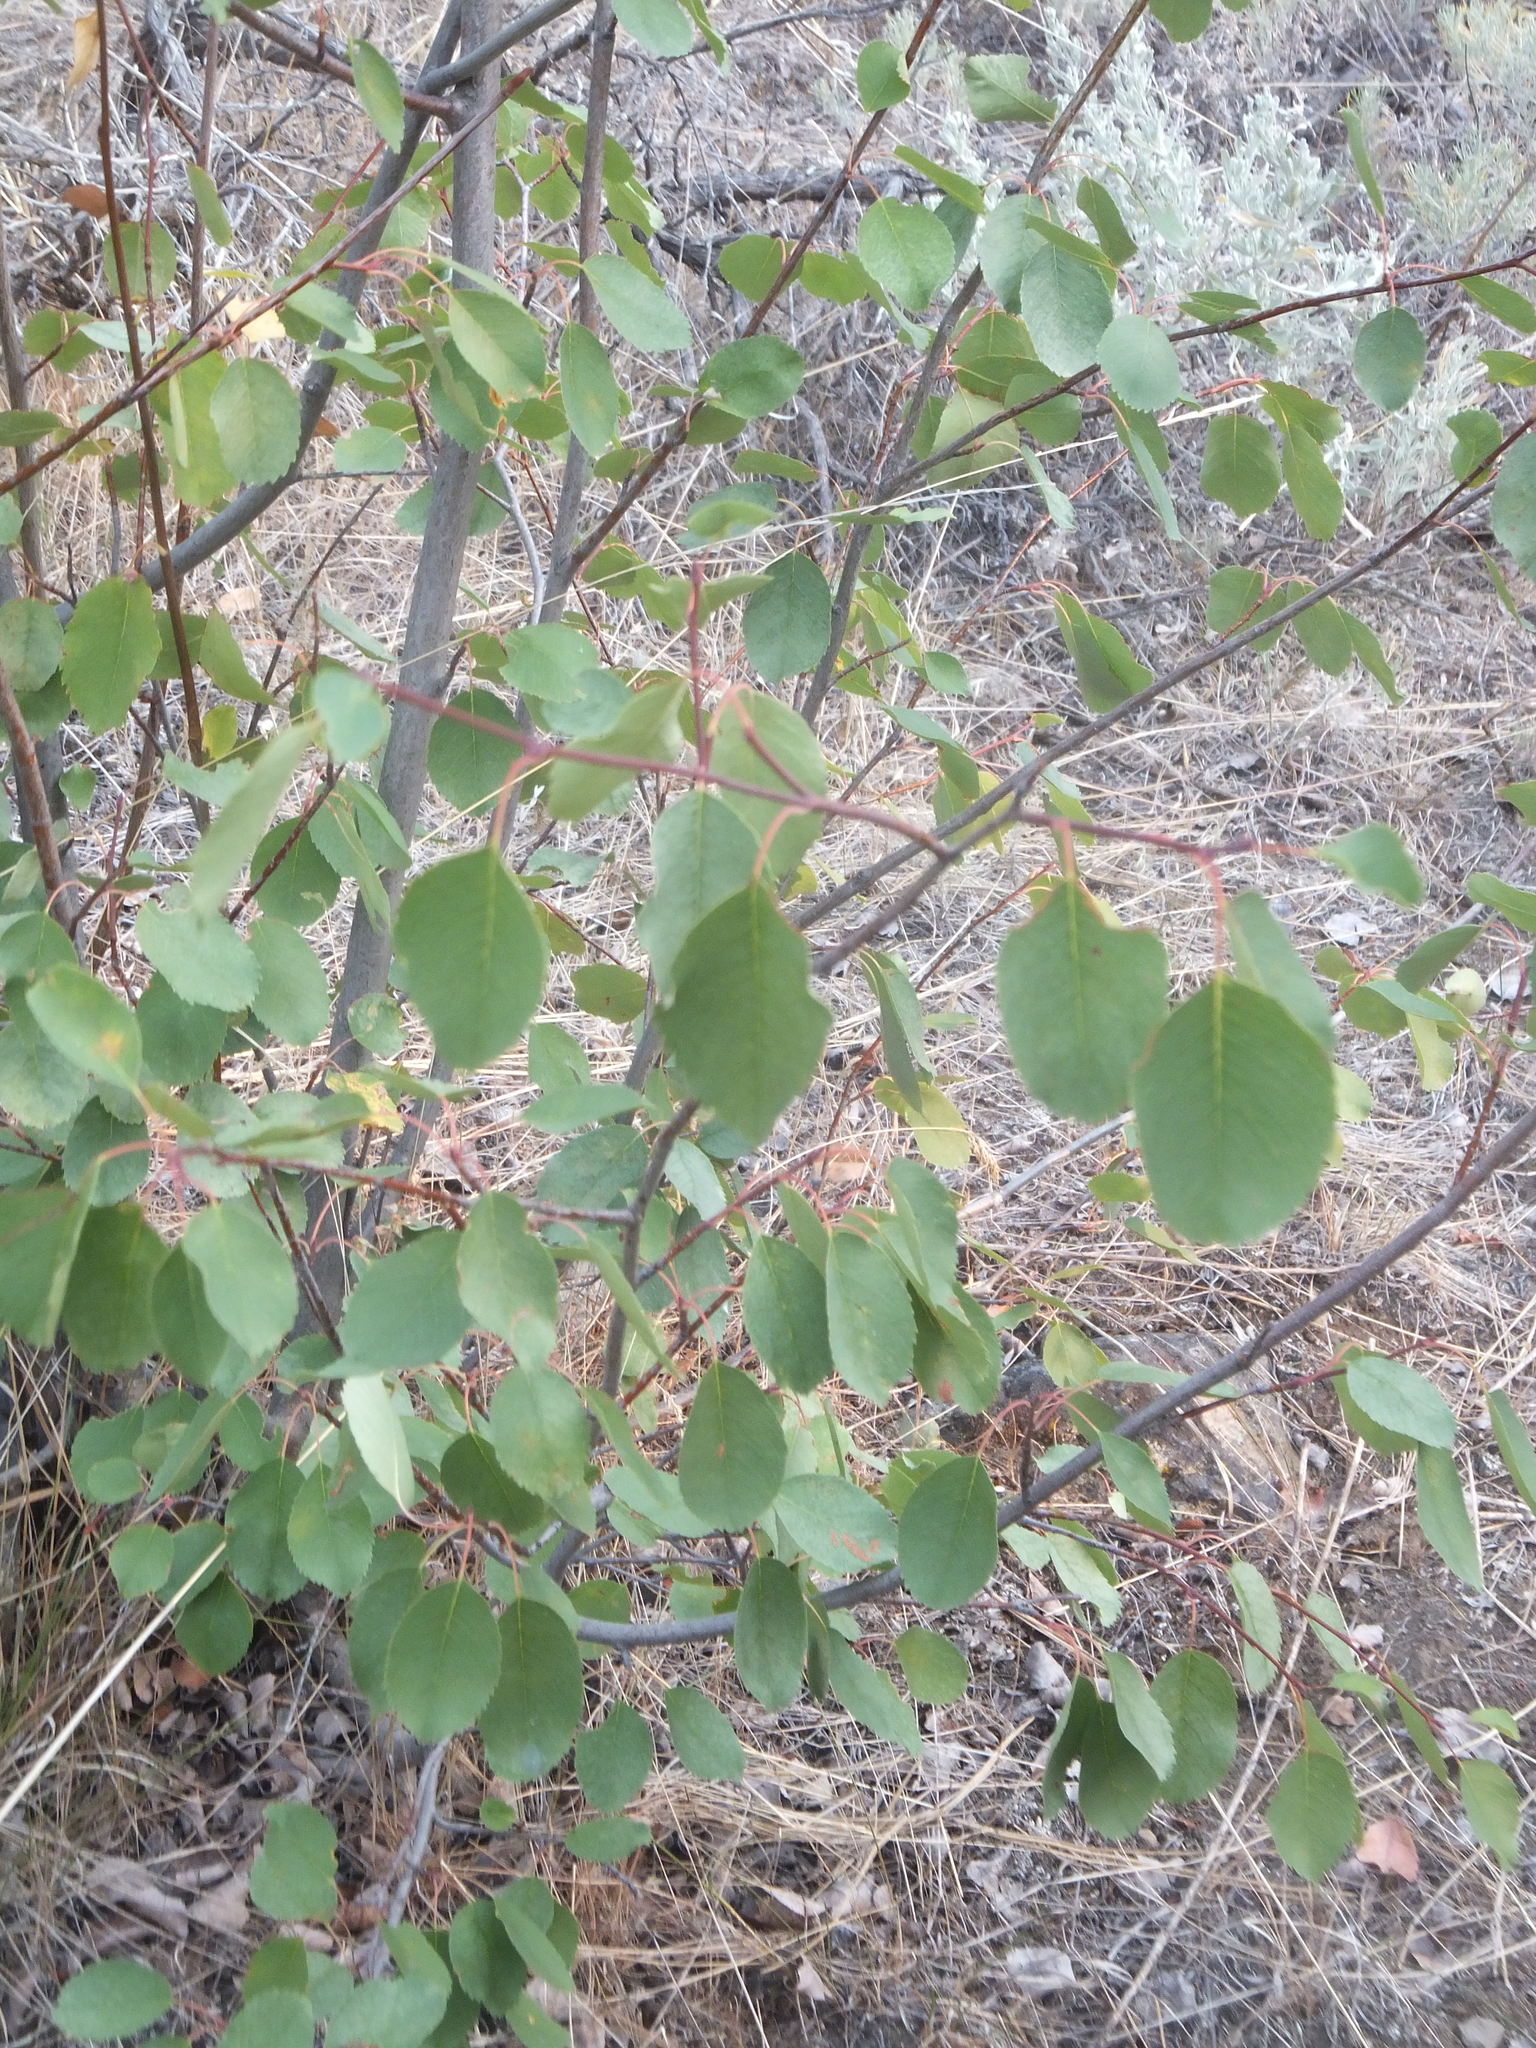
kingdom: Plantae
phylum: Tracheophyta
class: Magnoliopsida
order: Rosales
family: Rosaceae
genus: Amelanchier
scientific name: Amelanchier alnifolia
